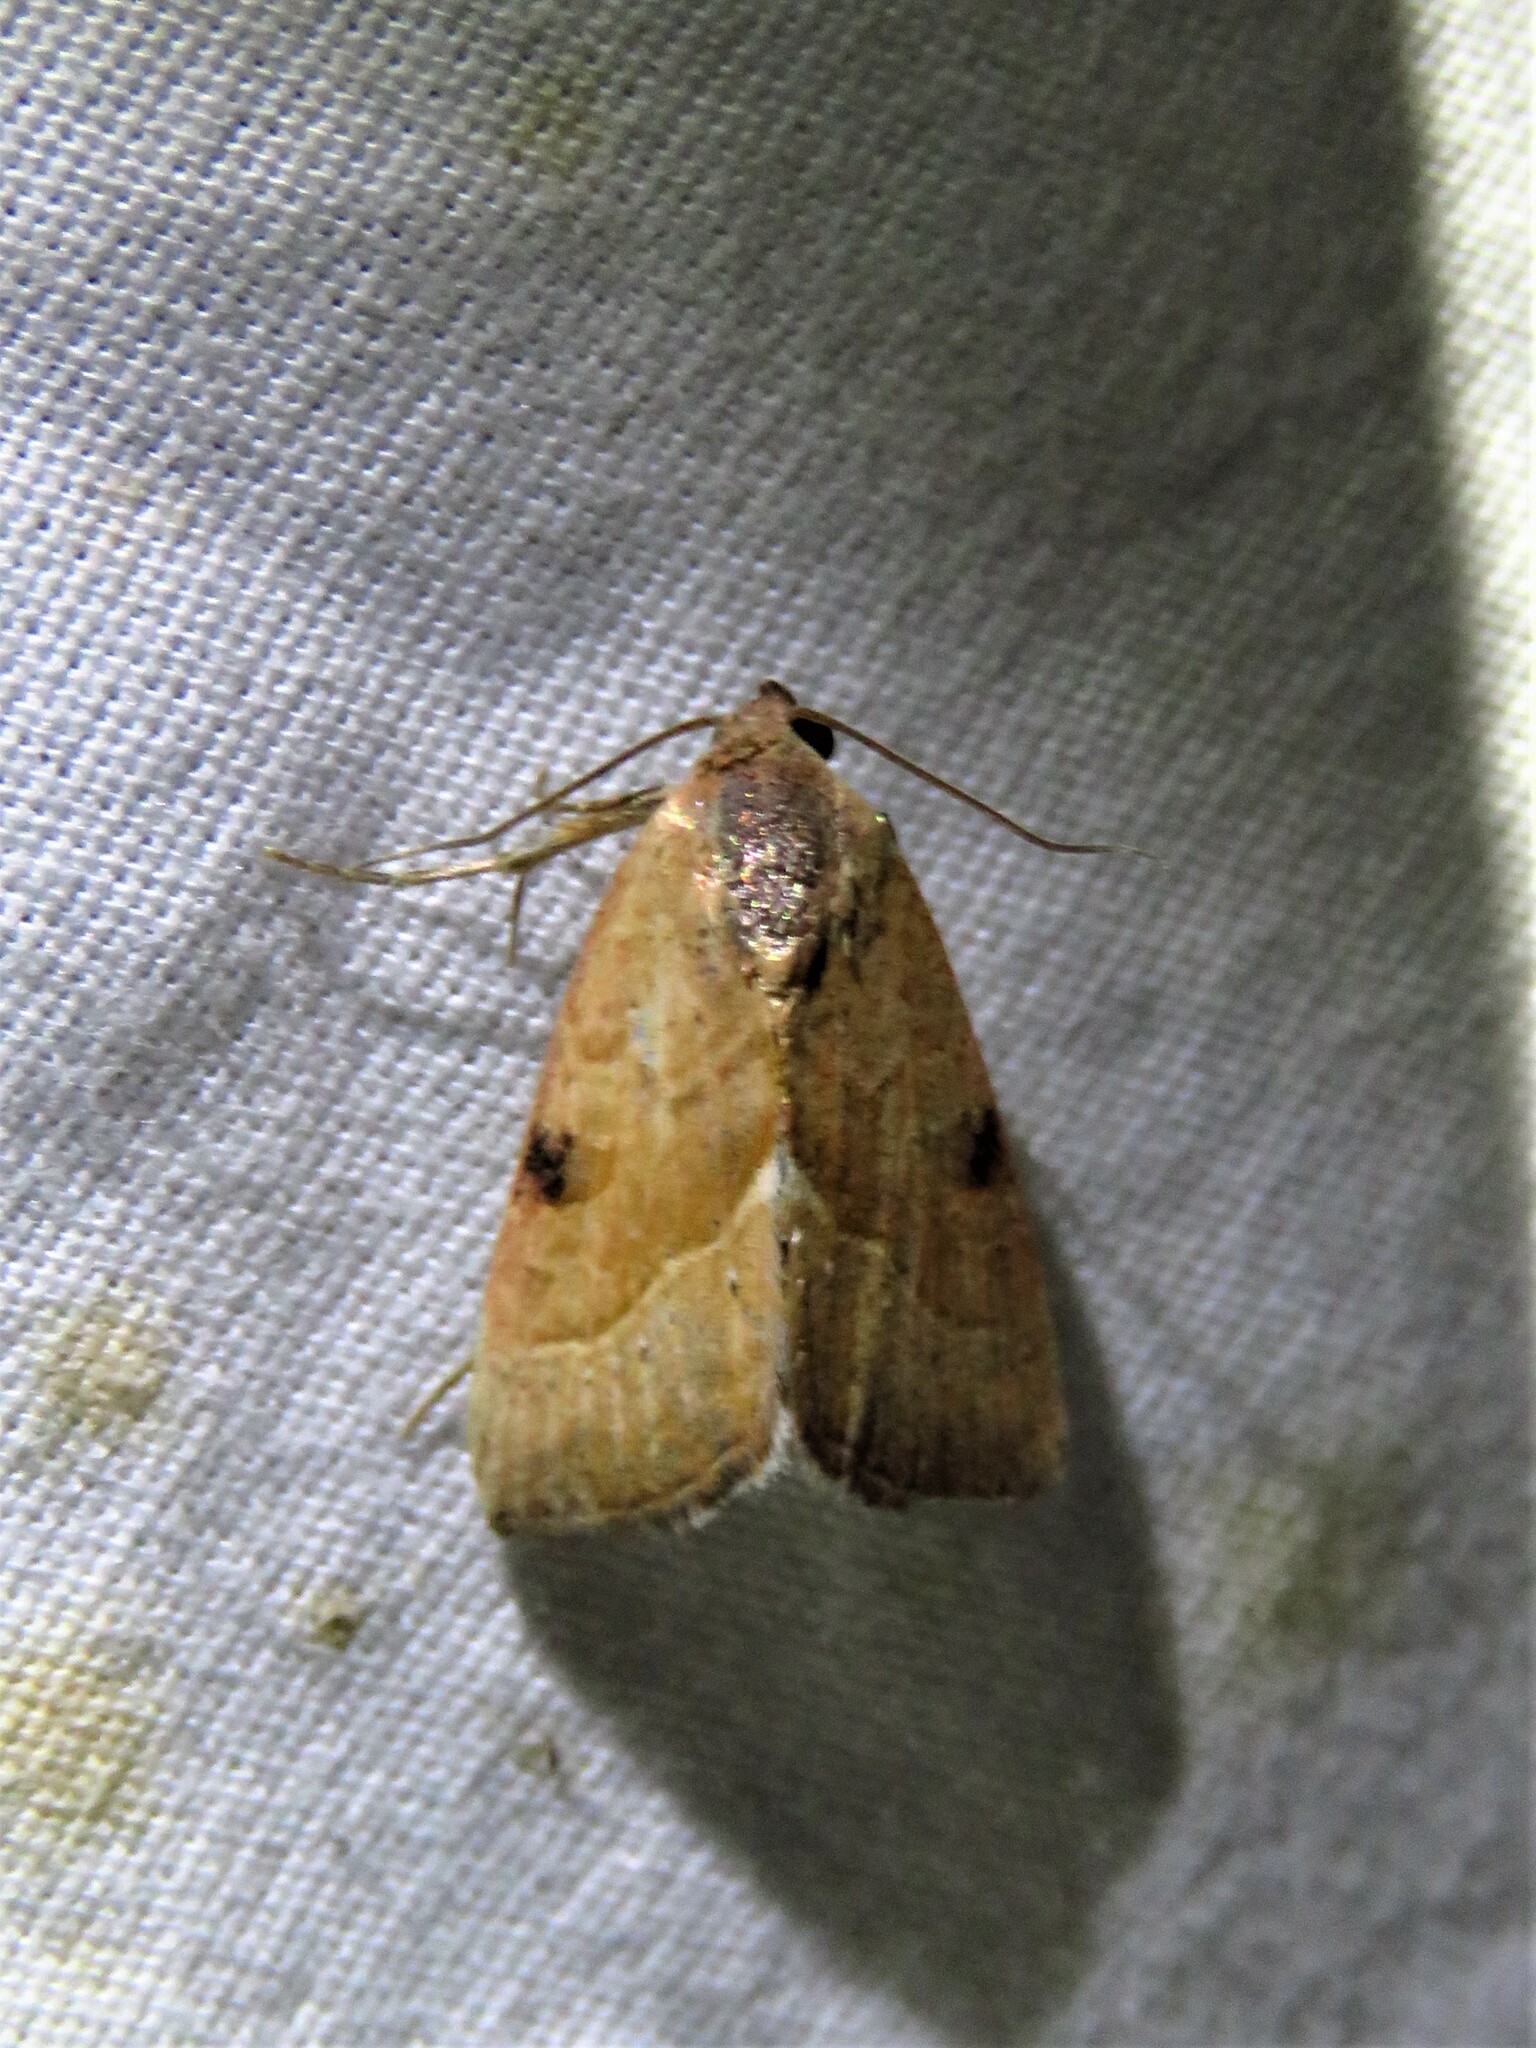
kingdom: Animalia
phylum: Arthropoda
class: Insecta
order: Lepidoptera
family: Noctuidae
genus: Galgula
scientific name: Galgula partita
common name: Wedgeling
